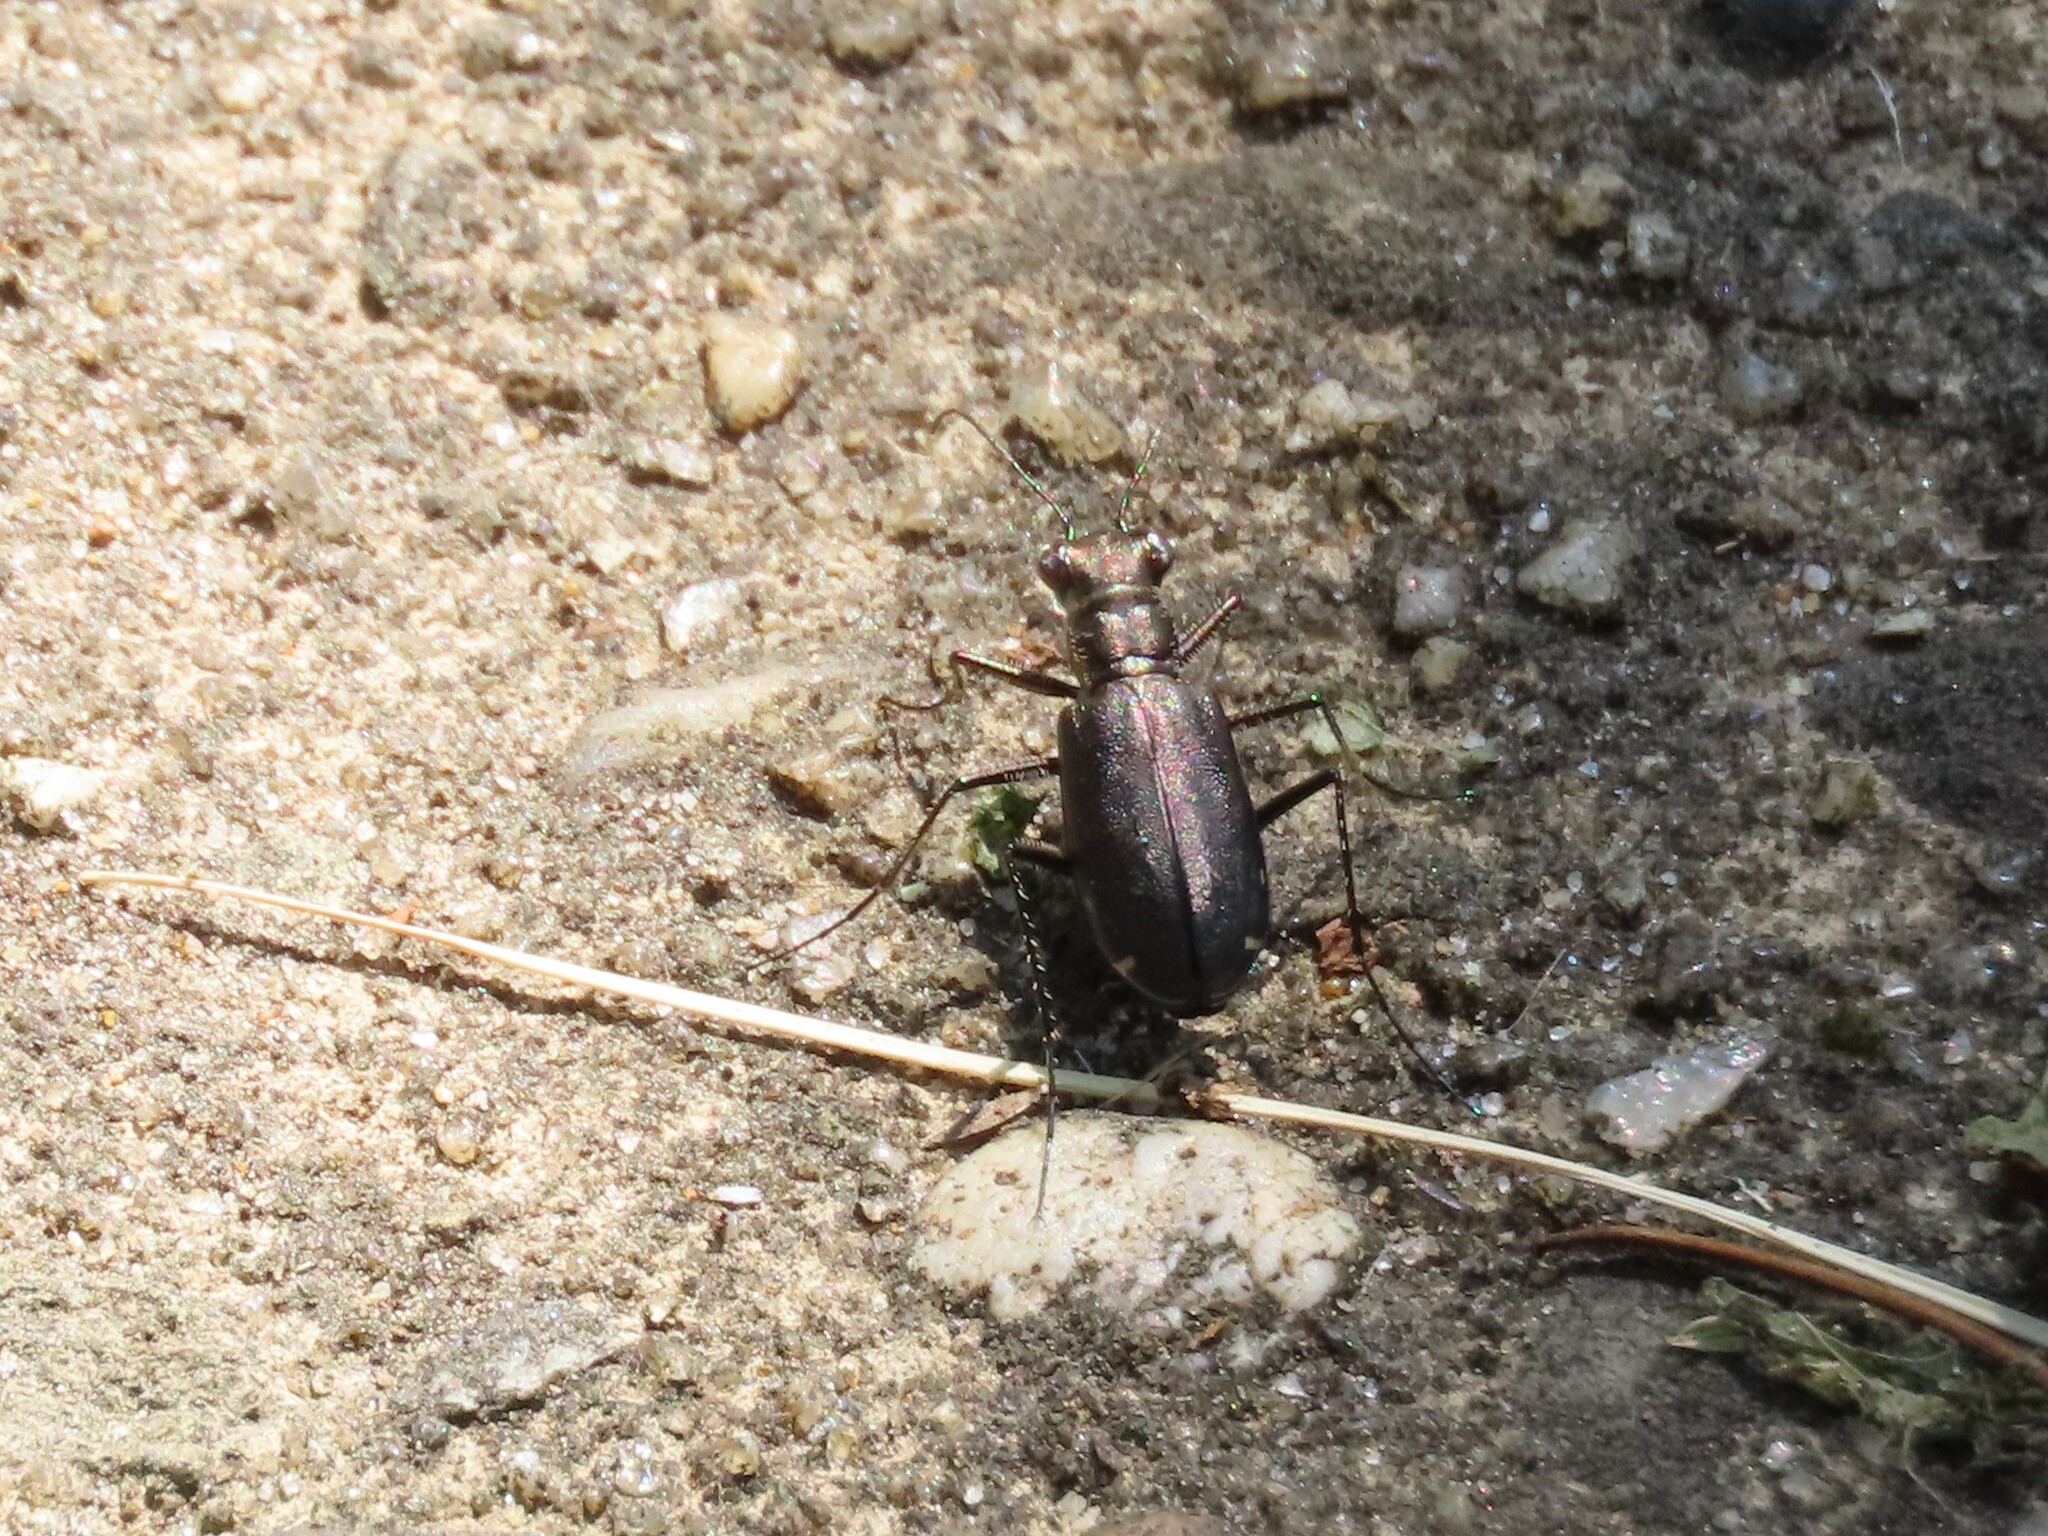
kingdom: Animalia
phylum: Arthropoda
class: Insecta
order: Coleoptera
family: Carabidae
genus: Cicindela
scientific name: Cicindela punctulata
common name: Punctured tiger beetle
